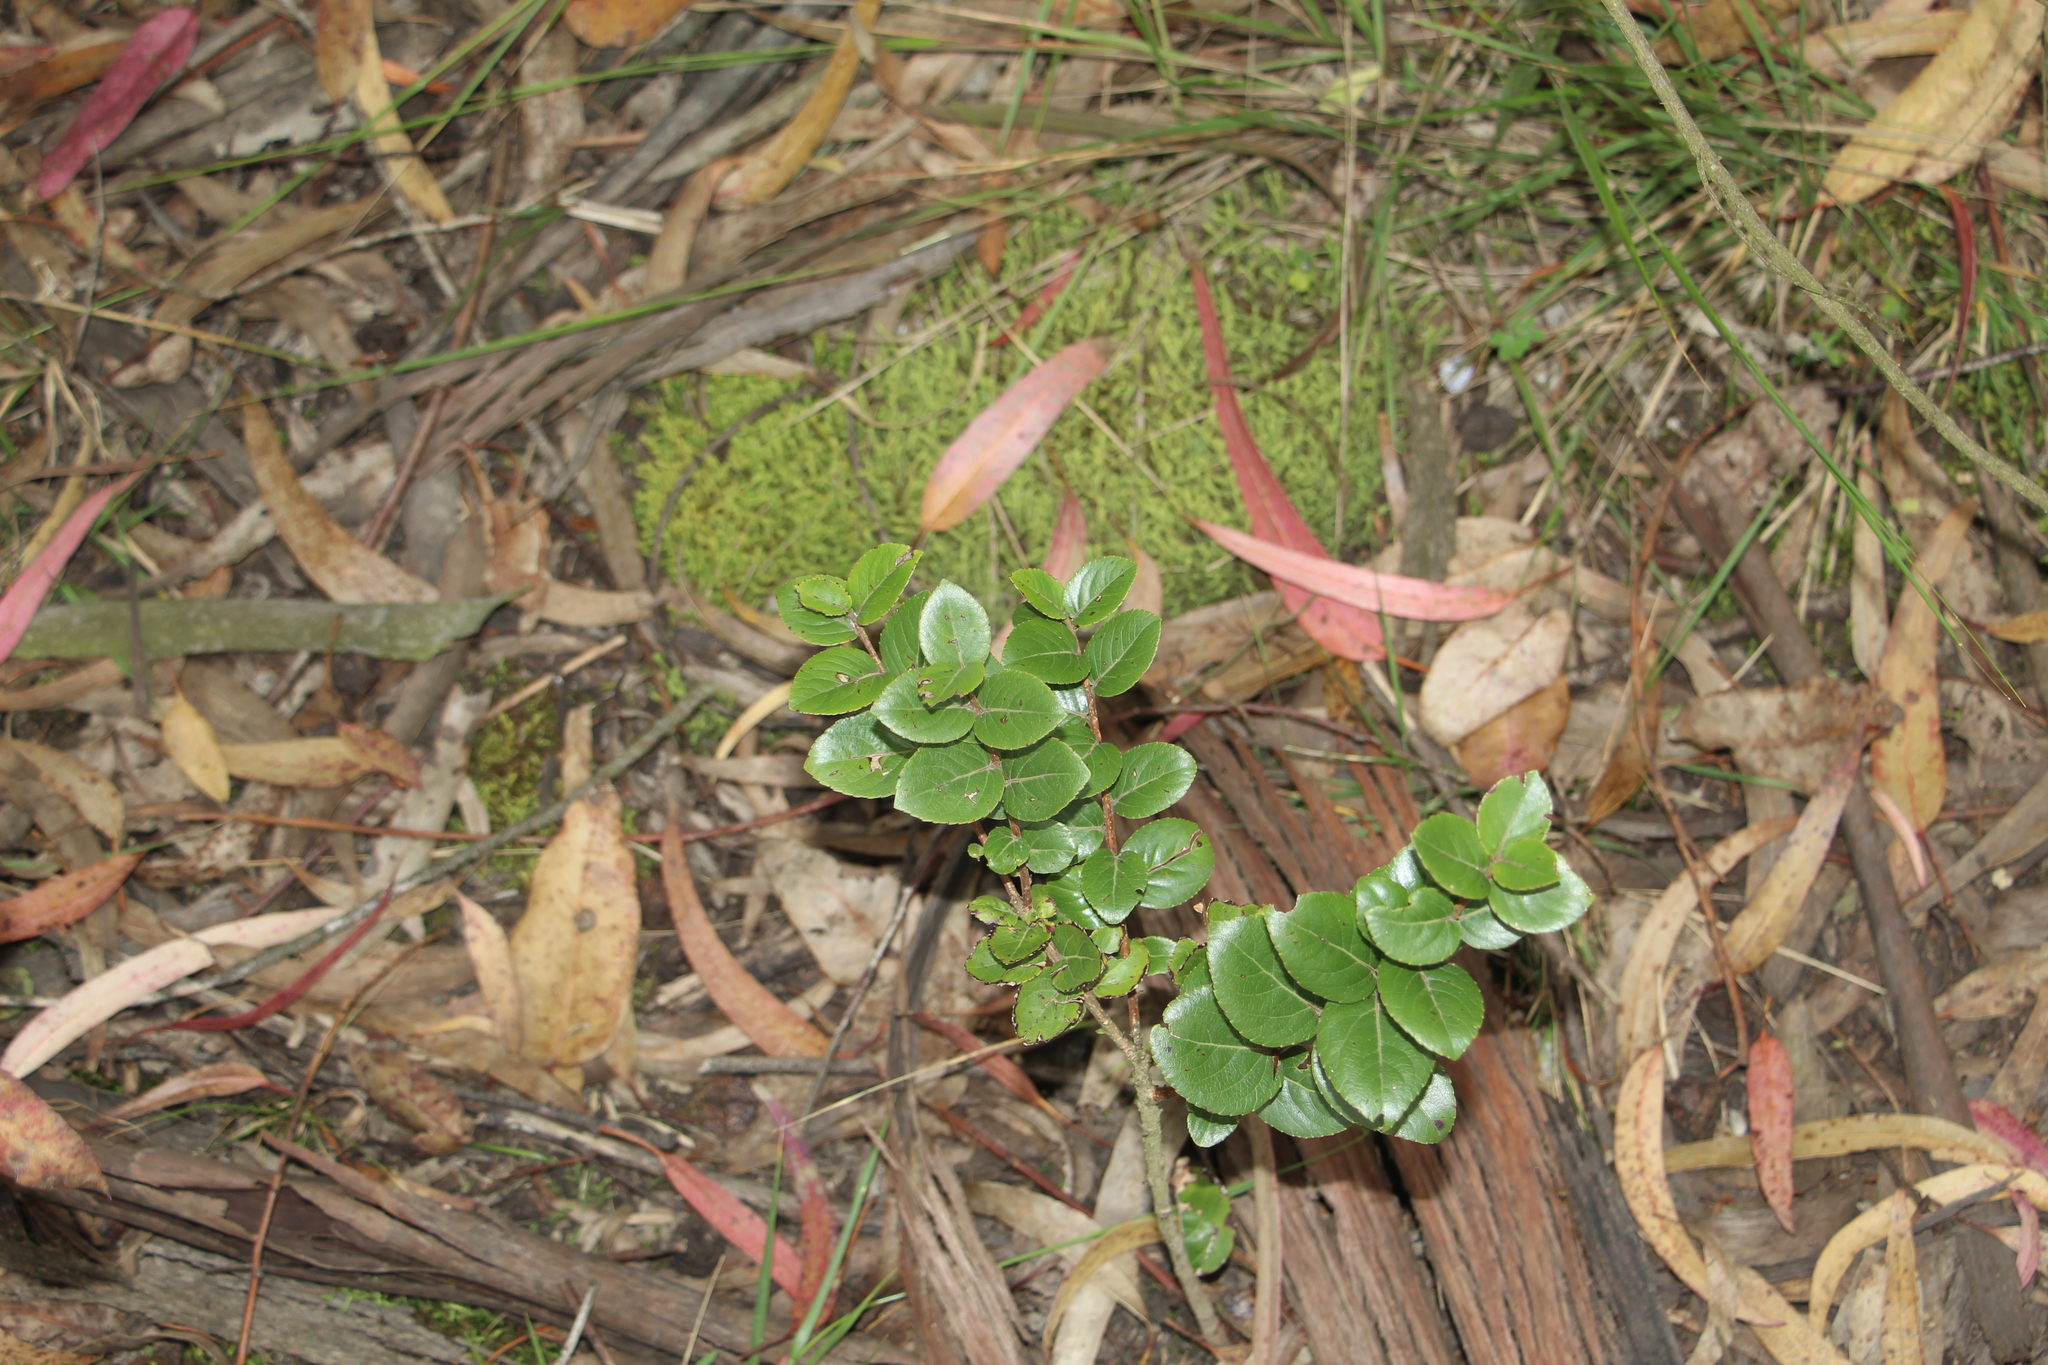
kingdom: Plantae
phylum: Tracheophyta
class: Magnoliopsida
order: Malpighiales
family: Salicaceae
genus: Xylosma
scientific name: Xylosma spiculifera
